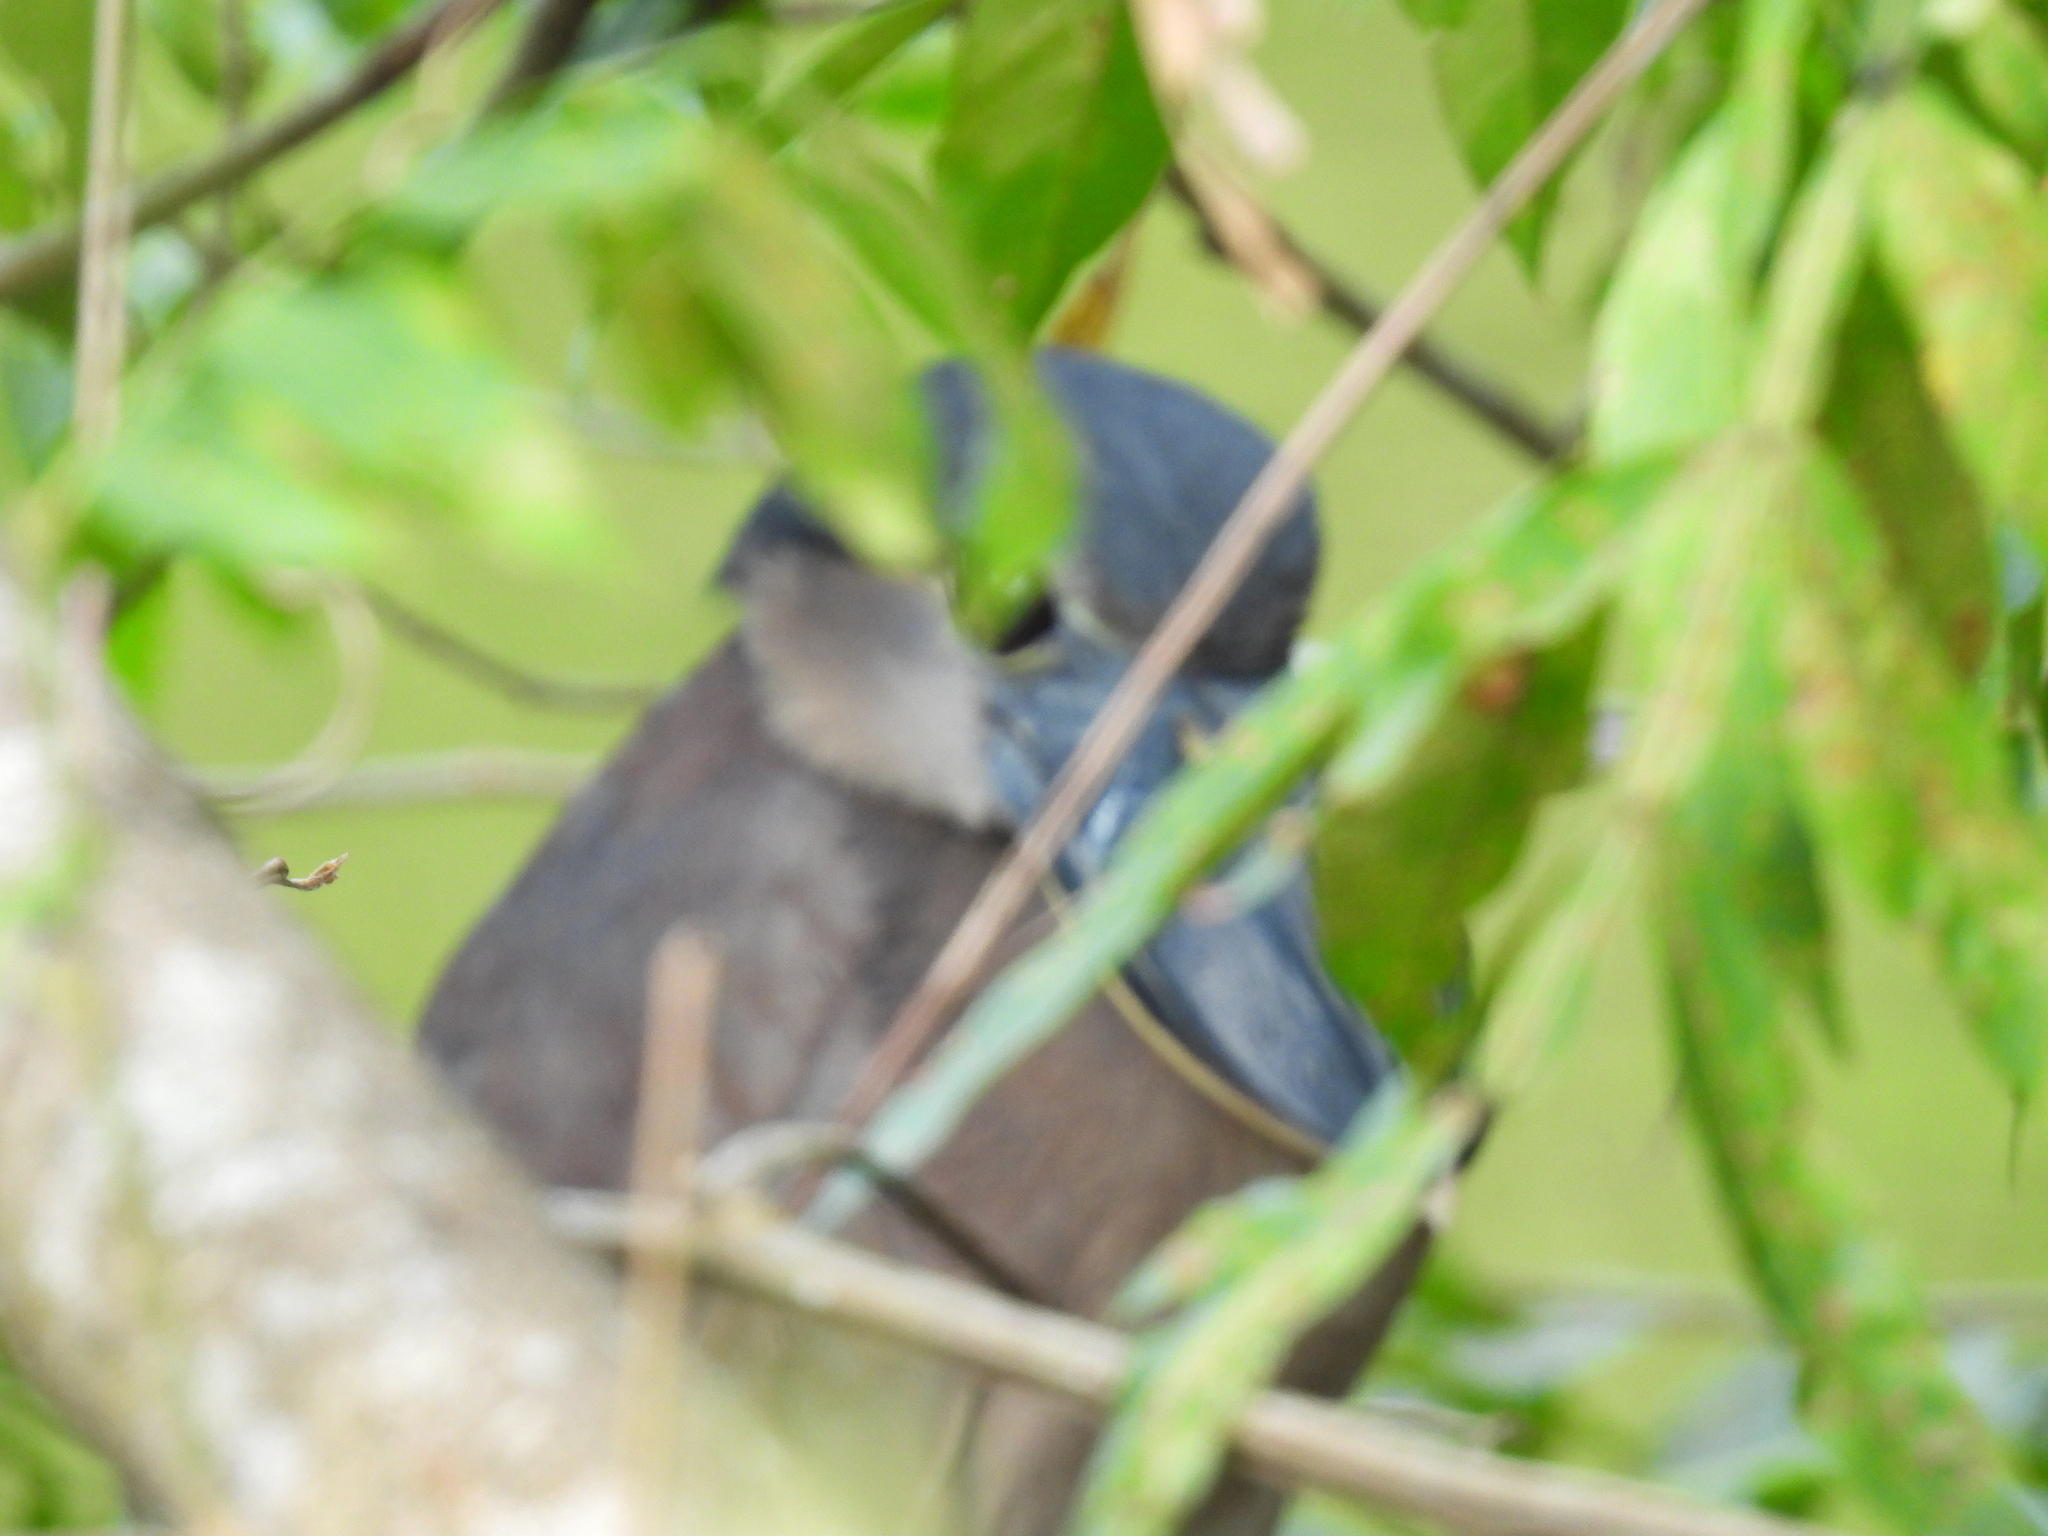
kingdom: Animalia
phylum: Chordata
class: Aves
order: Pelecaniformes
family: Ardeidae
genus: Cochlearius
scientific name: Cochlearius cochlearius
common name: Boat-billed heron
